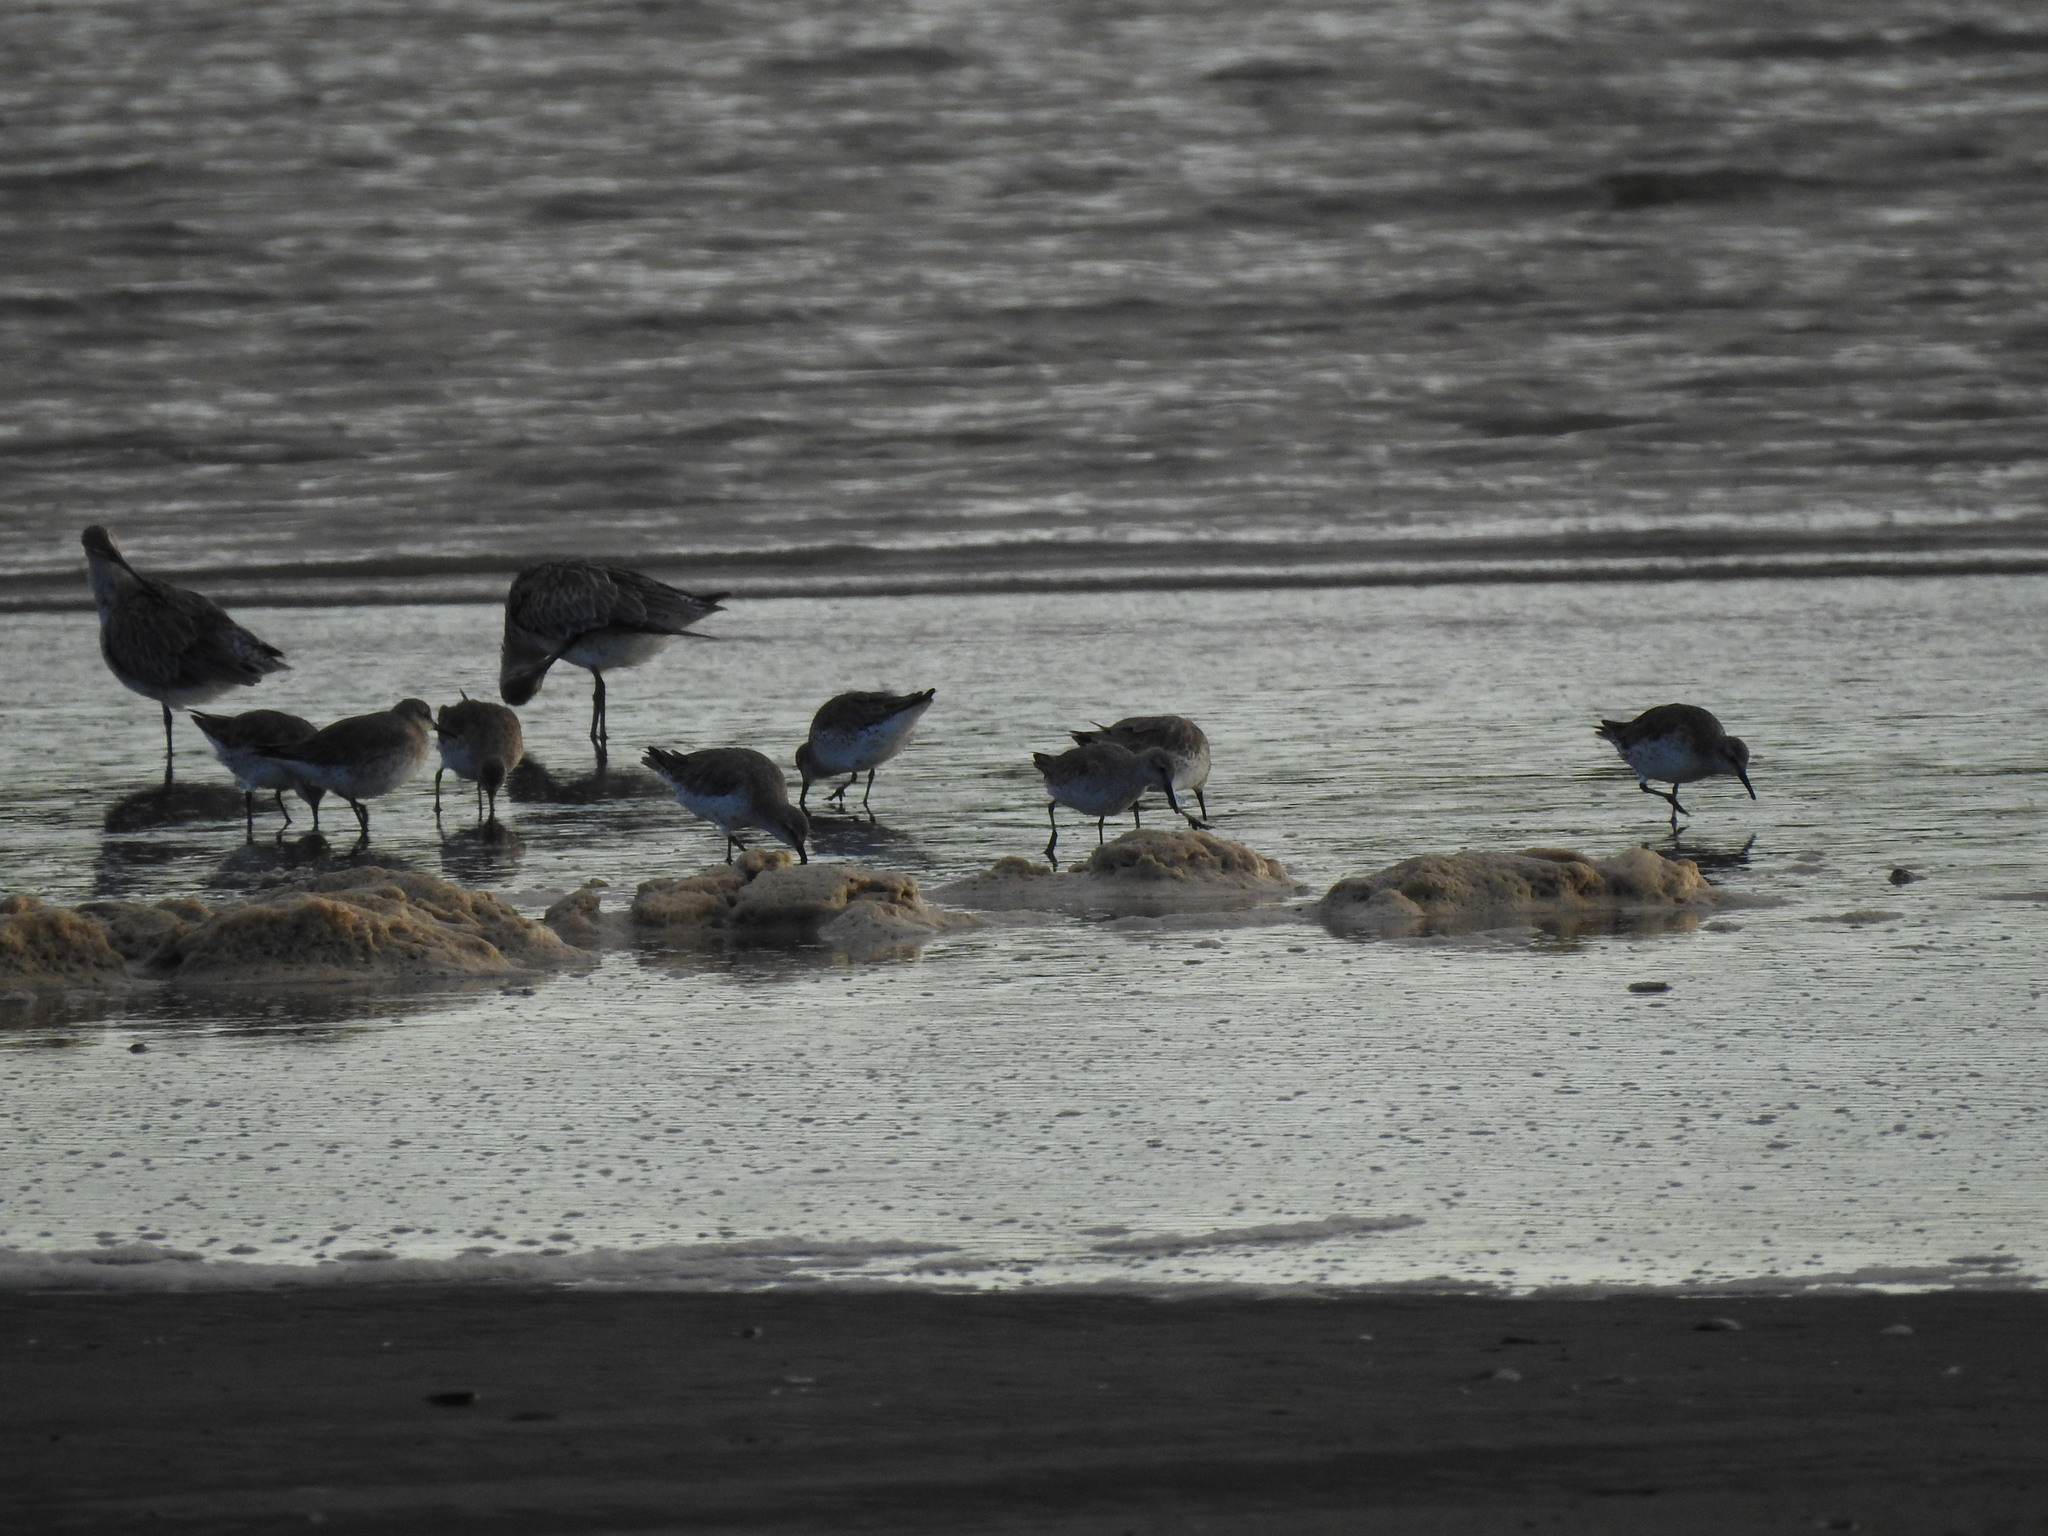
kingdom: Animalia
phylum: Chordata
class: Aves
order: Charadriiformes
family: Scolopacidae
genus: Calidris
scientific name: Calidris canutus
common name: Red knot
